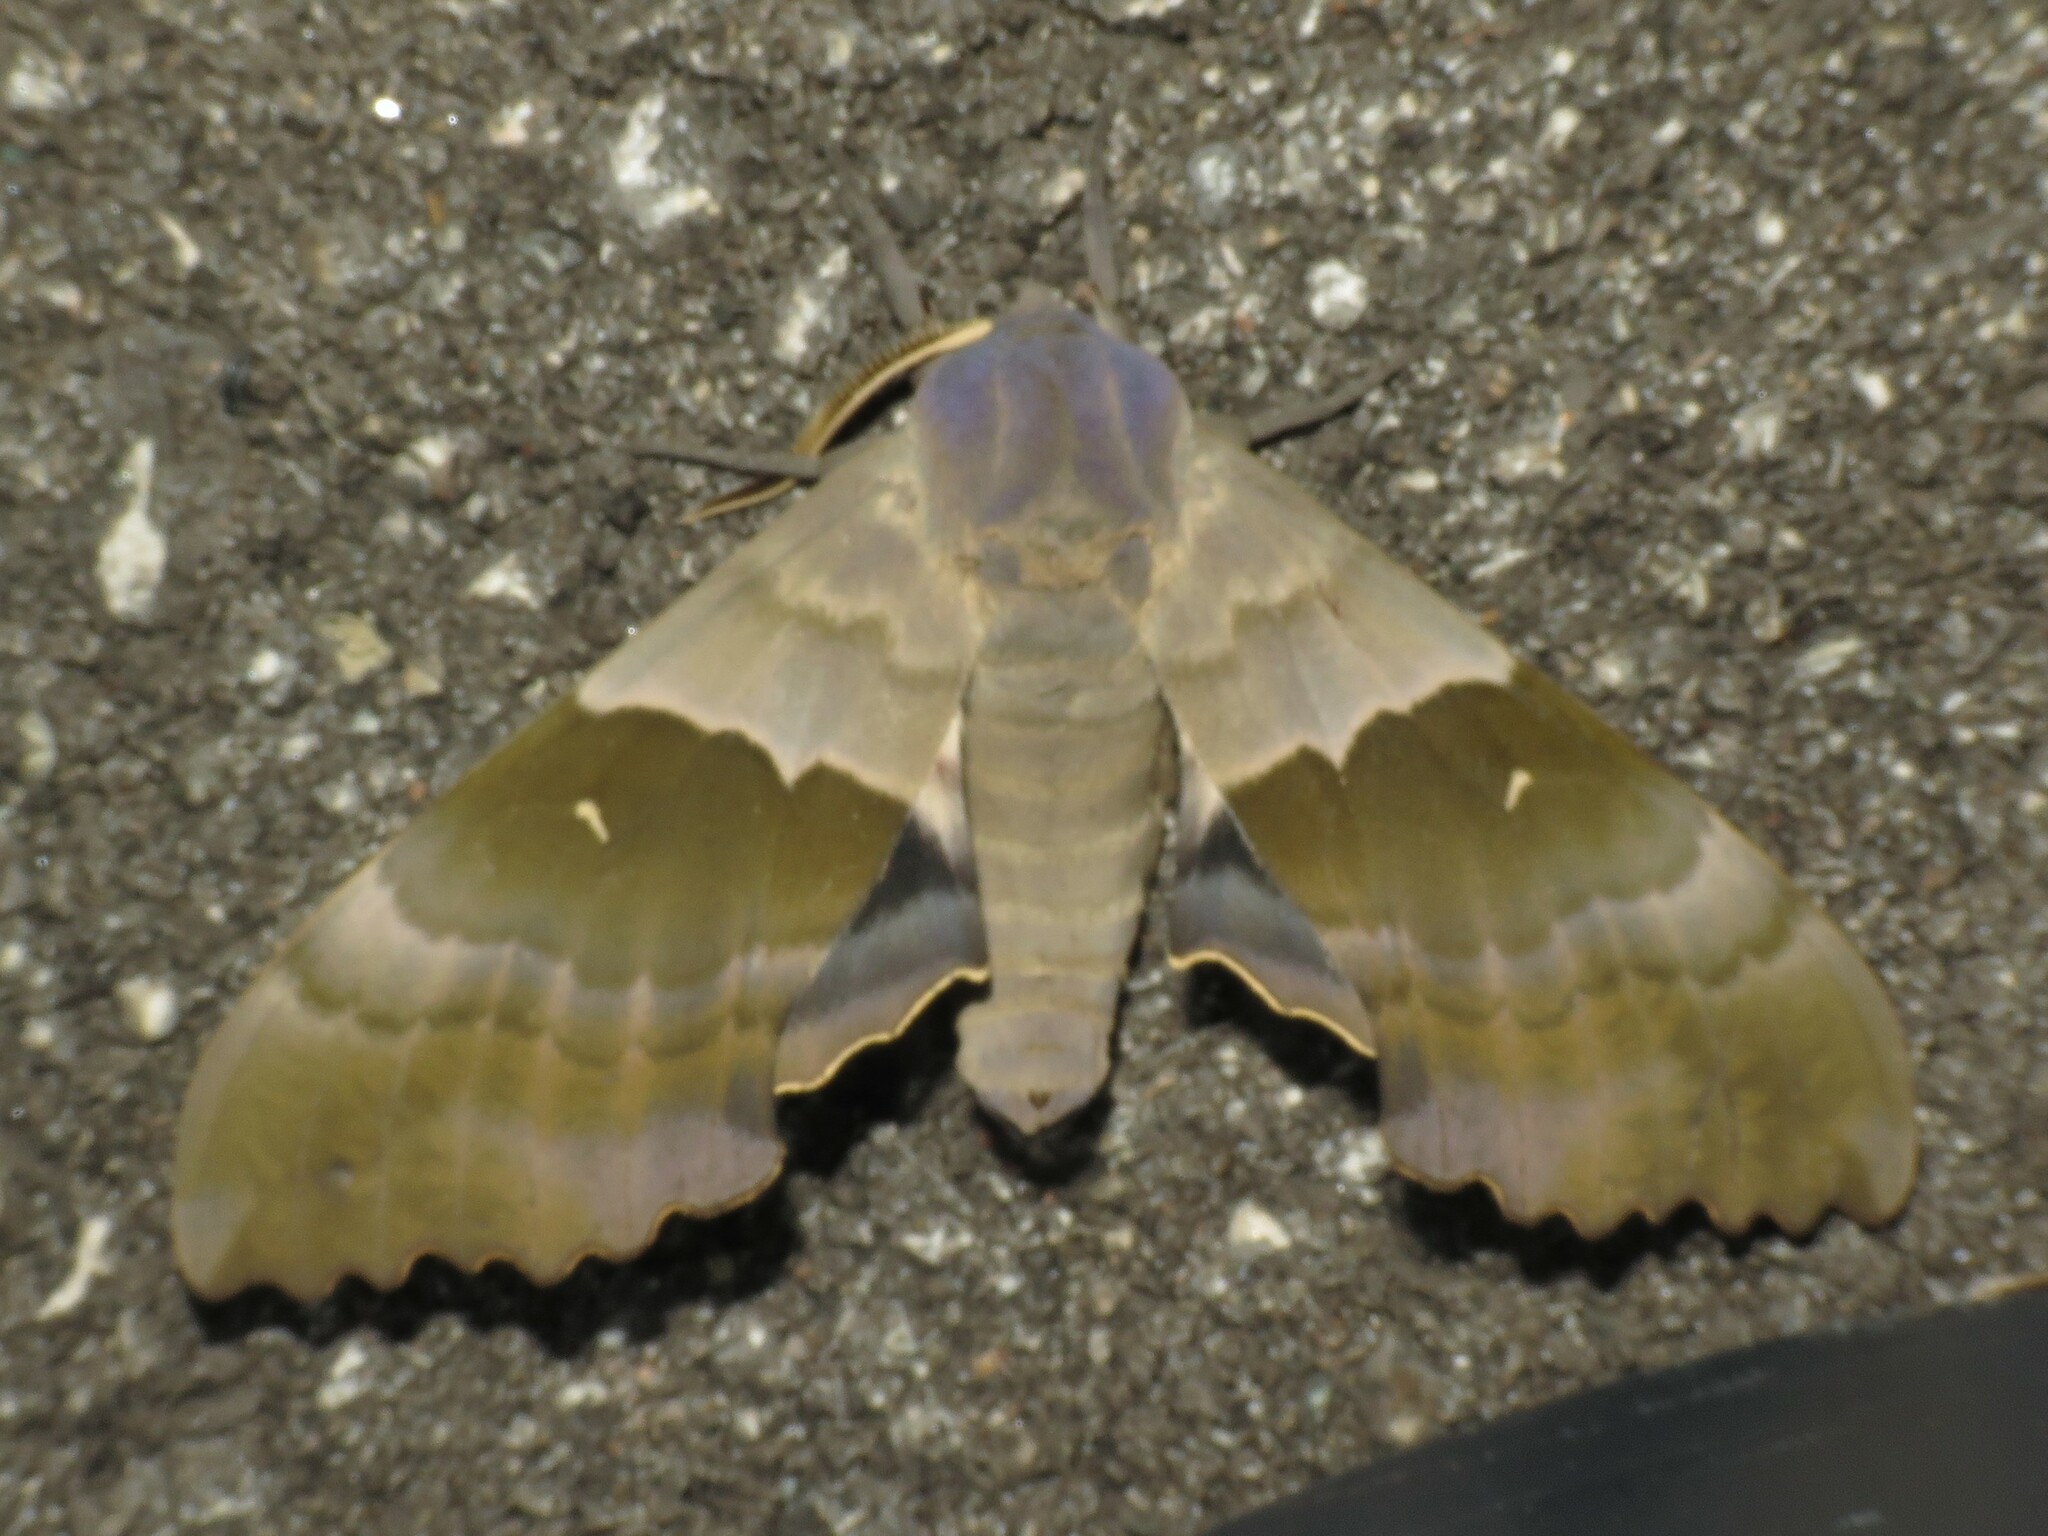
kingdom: Animalia
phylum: Arthropoda
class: Insecta
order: Lepidoptera
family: Sphingidae
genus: Pachysphinx
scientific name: Pachysphinx modesta
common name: Big poplar sphinx
